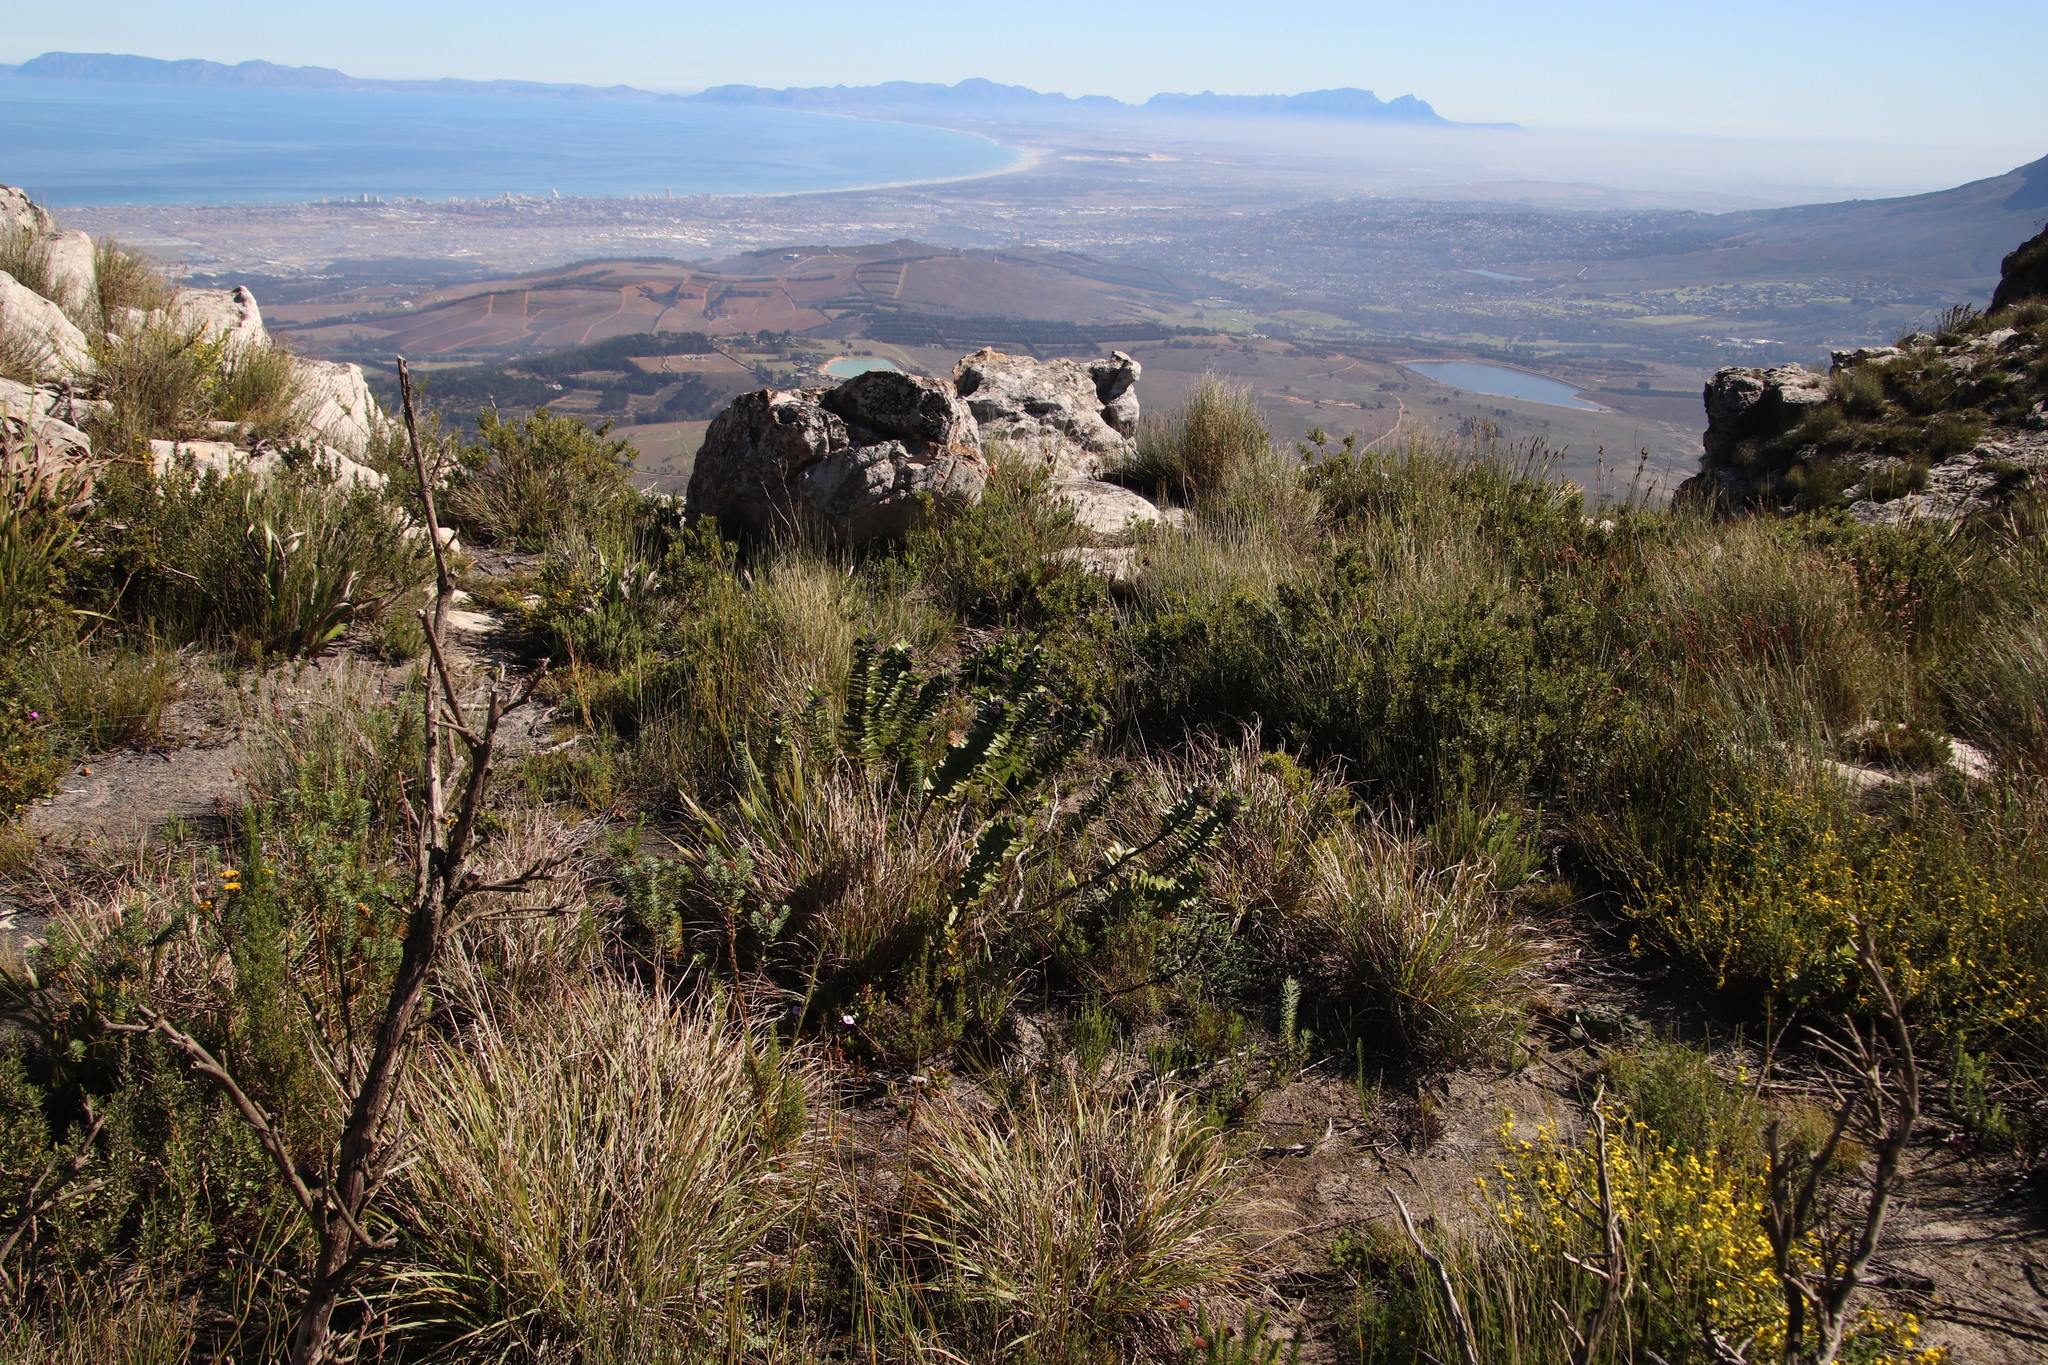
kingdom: Plantae
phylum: Tracheophyta
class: Magnoliopsida
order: Gentianales
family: Apocynaceae
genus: Gomphocarpus
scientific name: Gomphocarpus cancellatus
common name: Wild cotton
